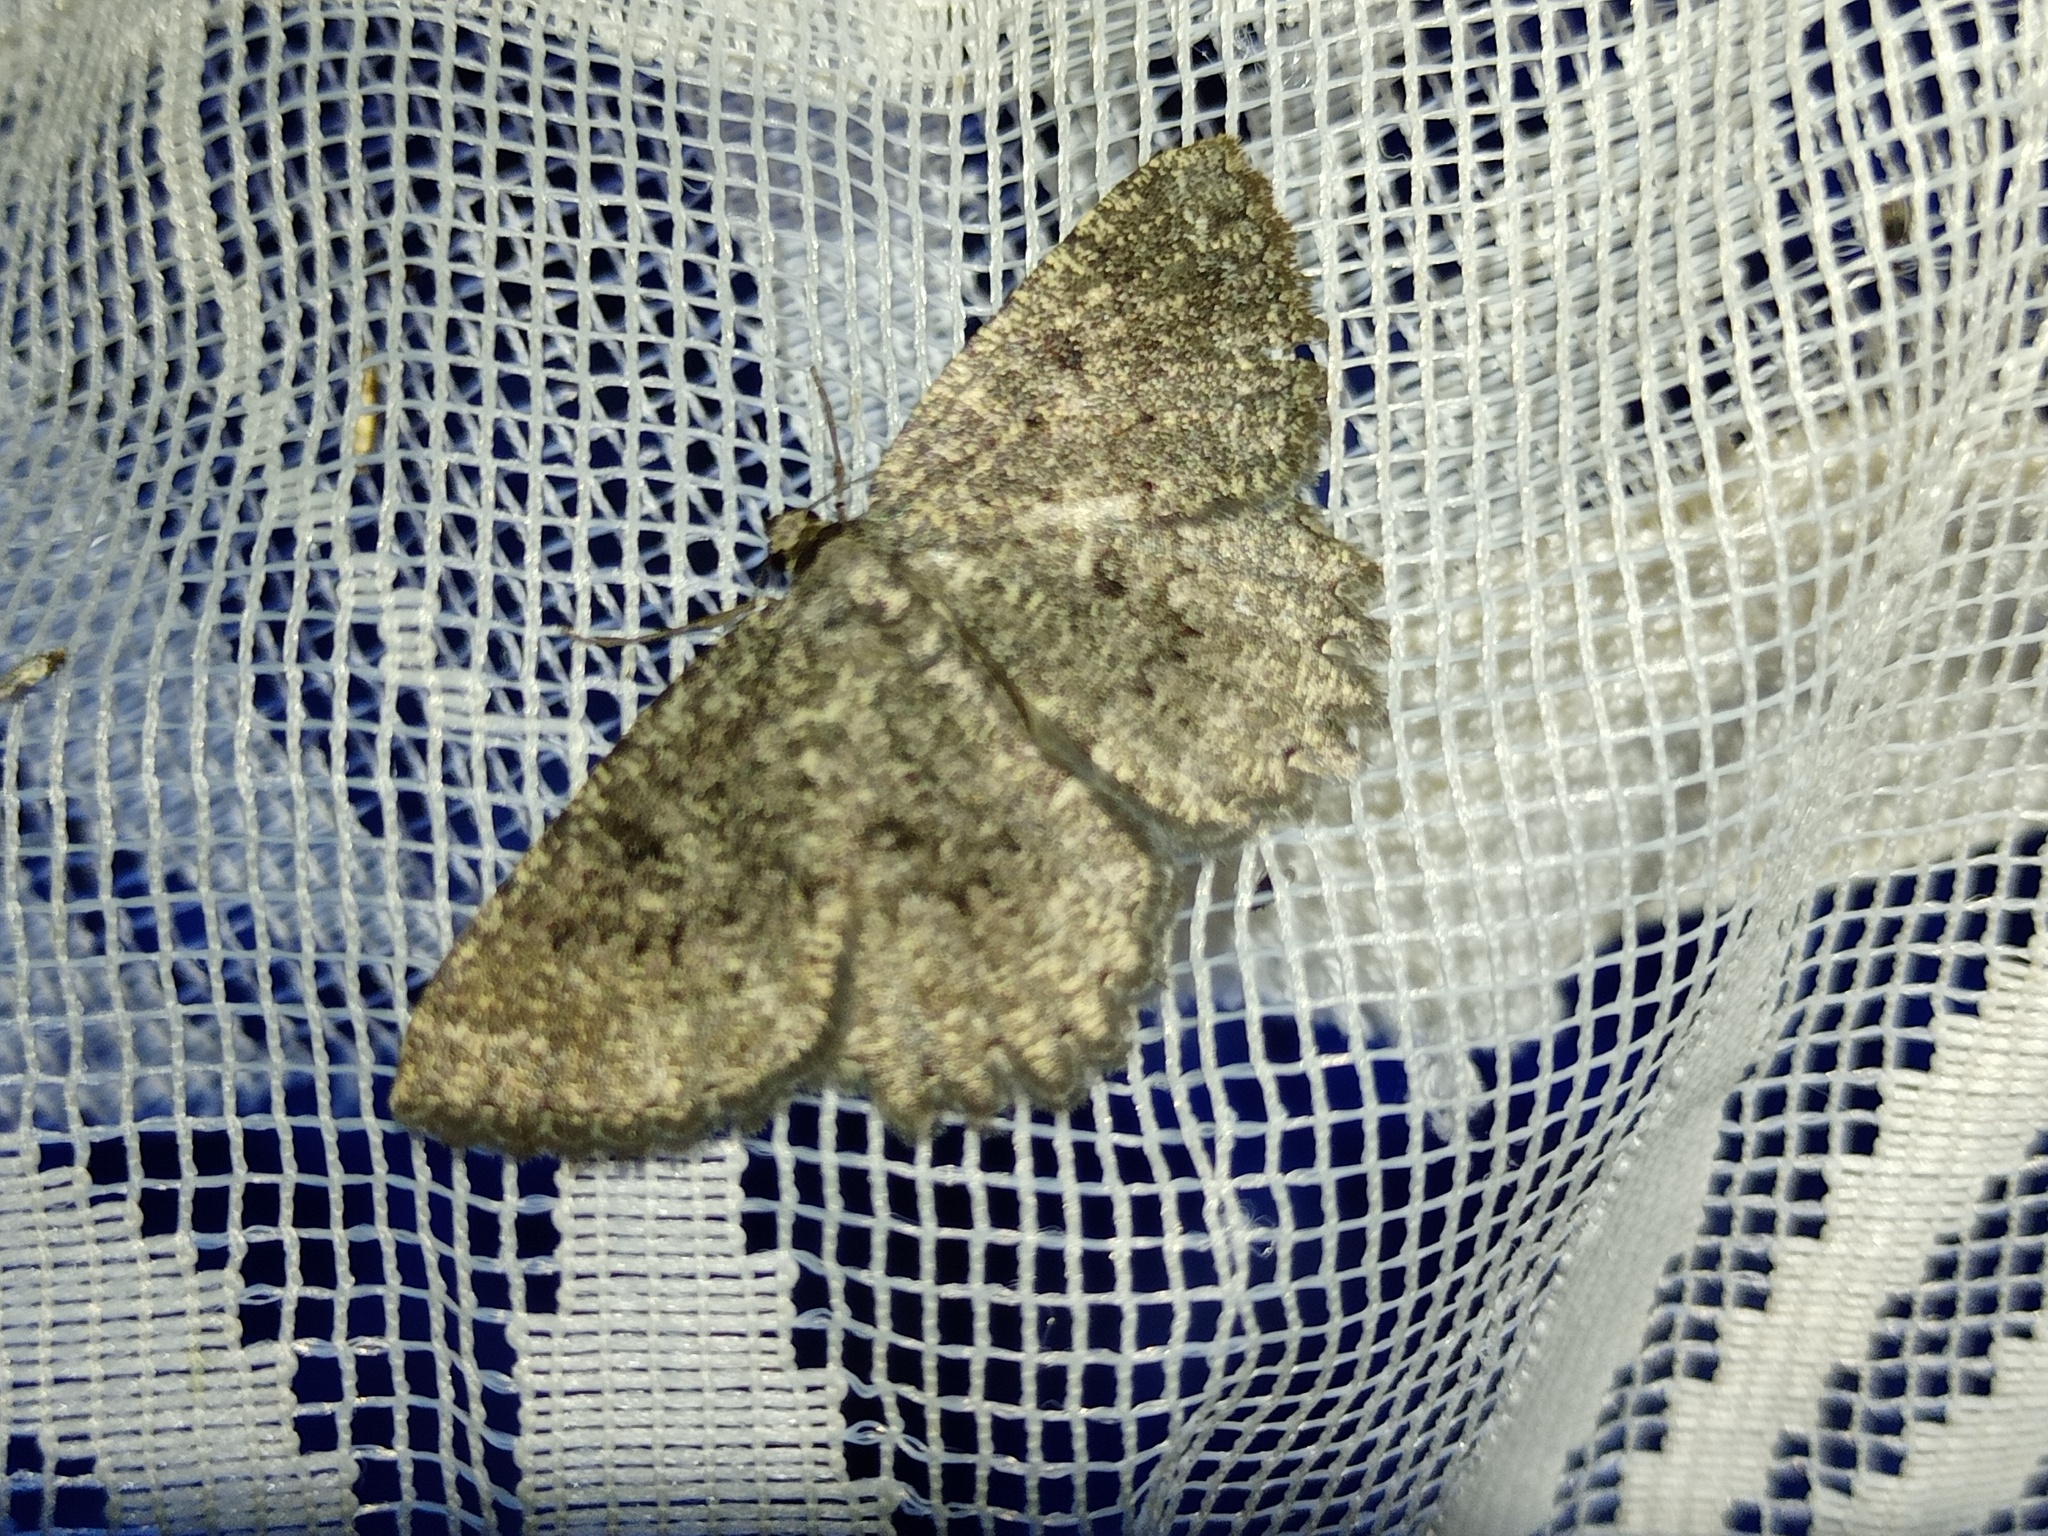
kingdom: Animalia
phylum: Arthropoda
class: Insecta
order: Lepidoptera
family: Geometridae
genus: Charissa
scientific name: Charissa obscurata
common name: Annulet
